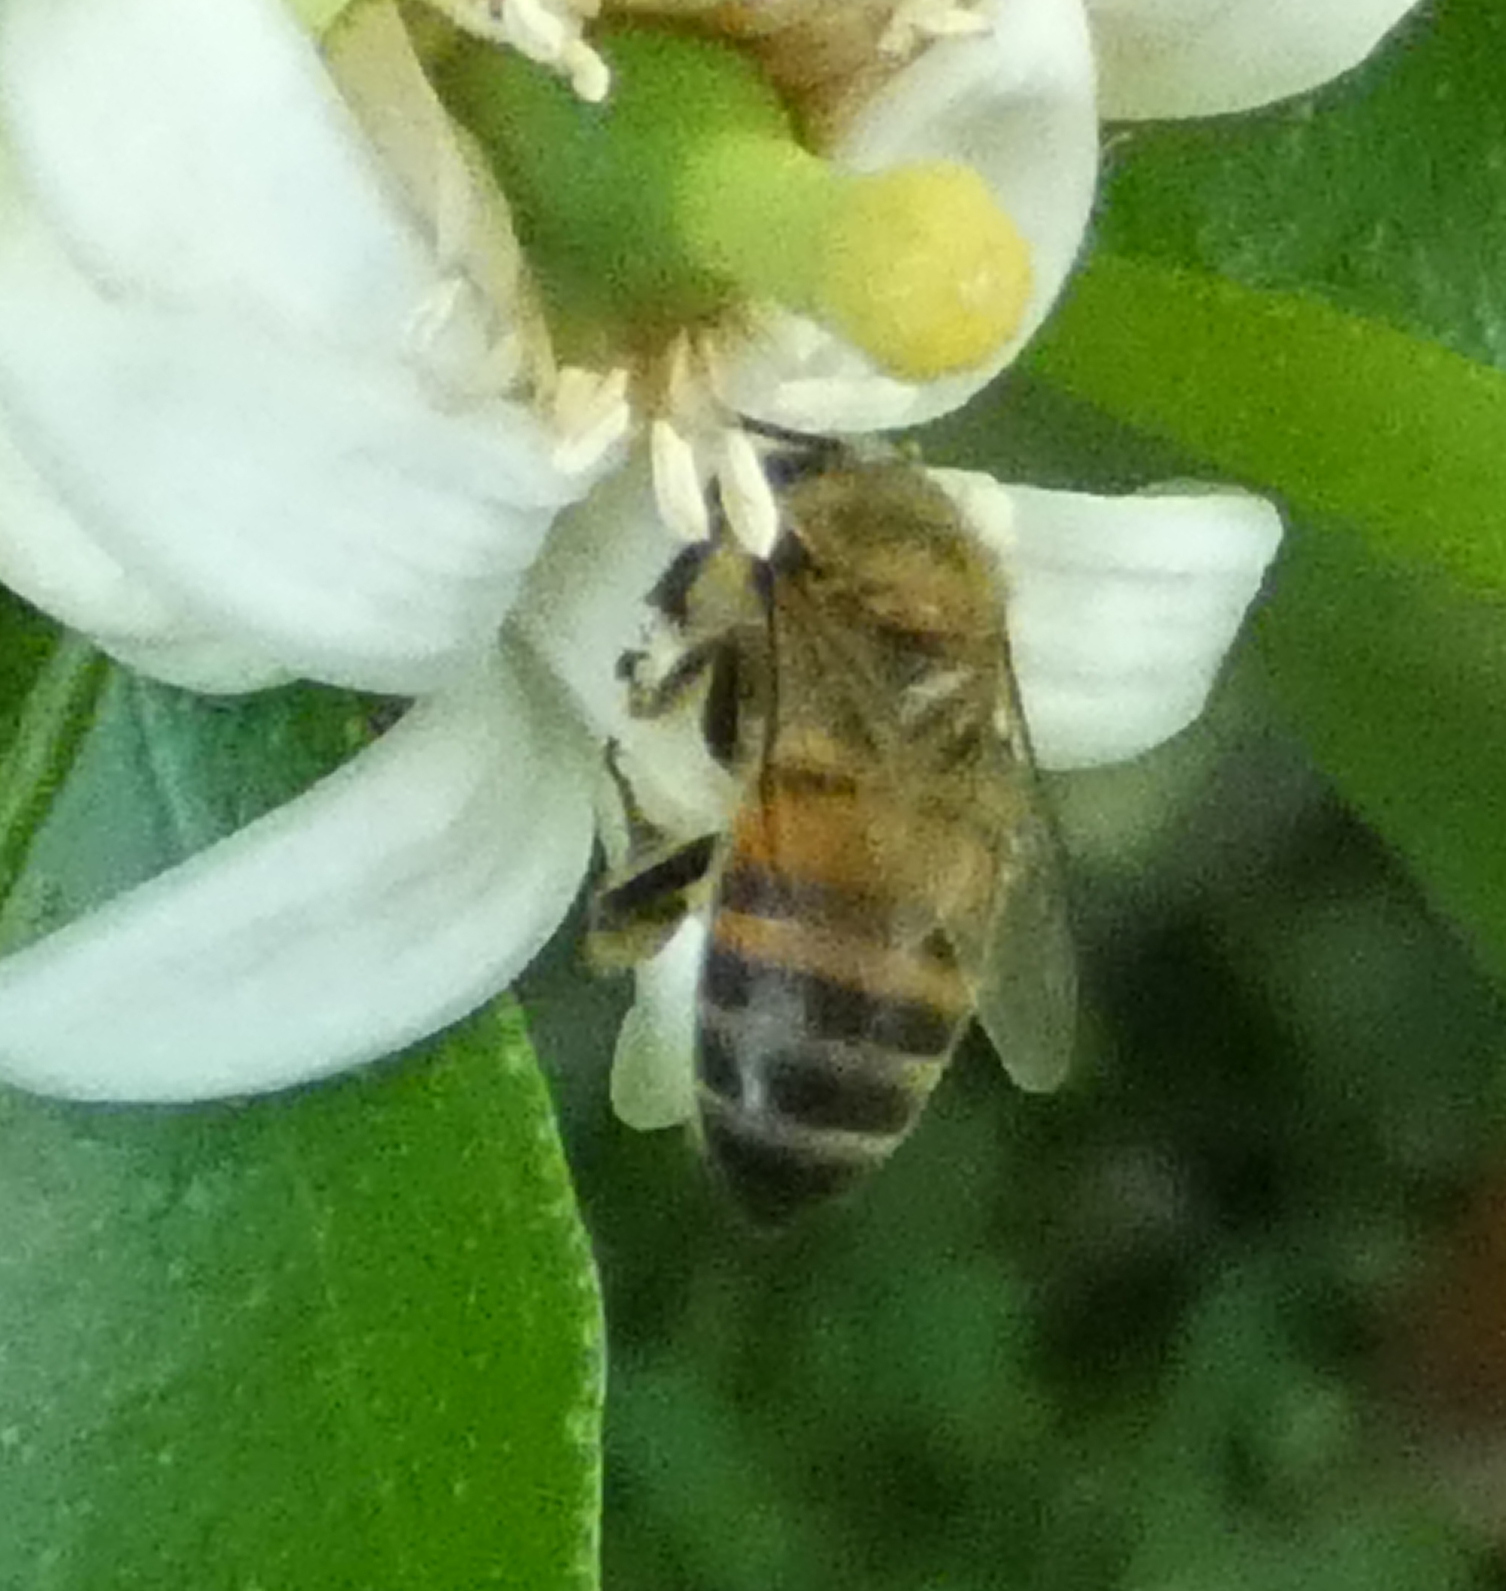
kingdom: Animalia
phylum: Arthropoda
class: Insecta
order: Hymenoptera
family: Apidae
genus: Apis
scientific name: Apis mellifera
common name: Honey bee
